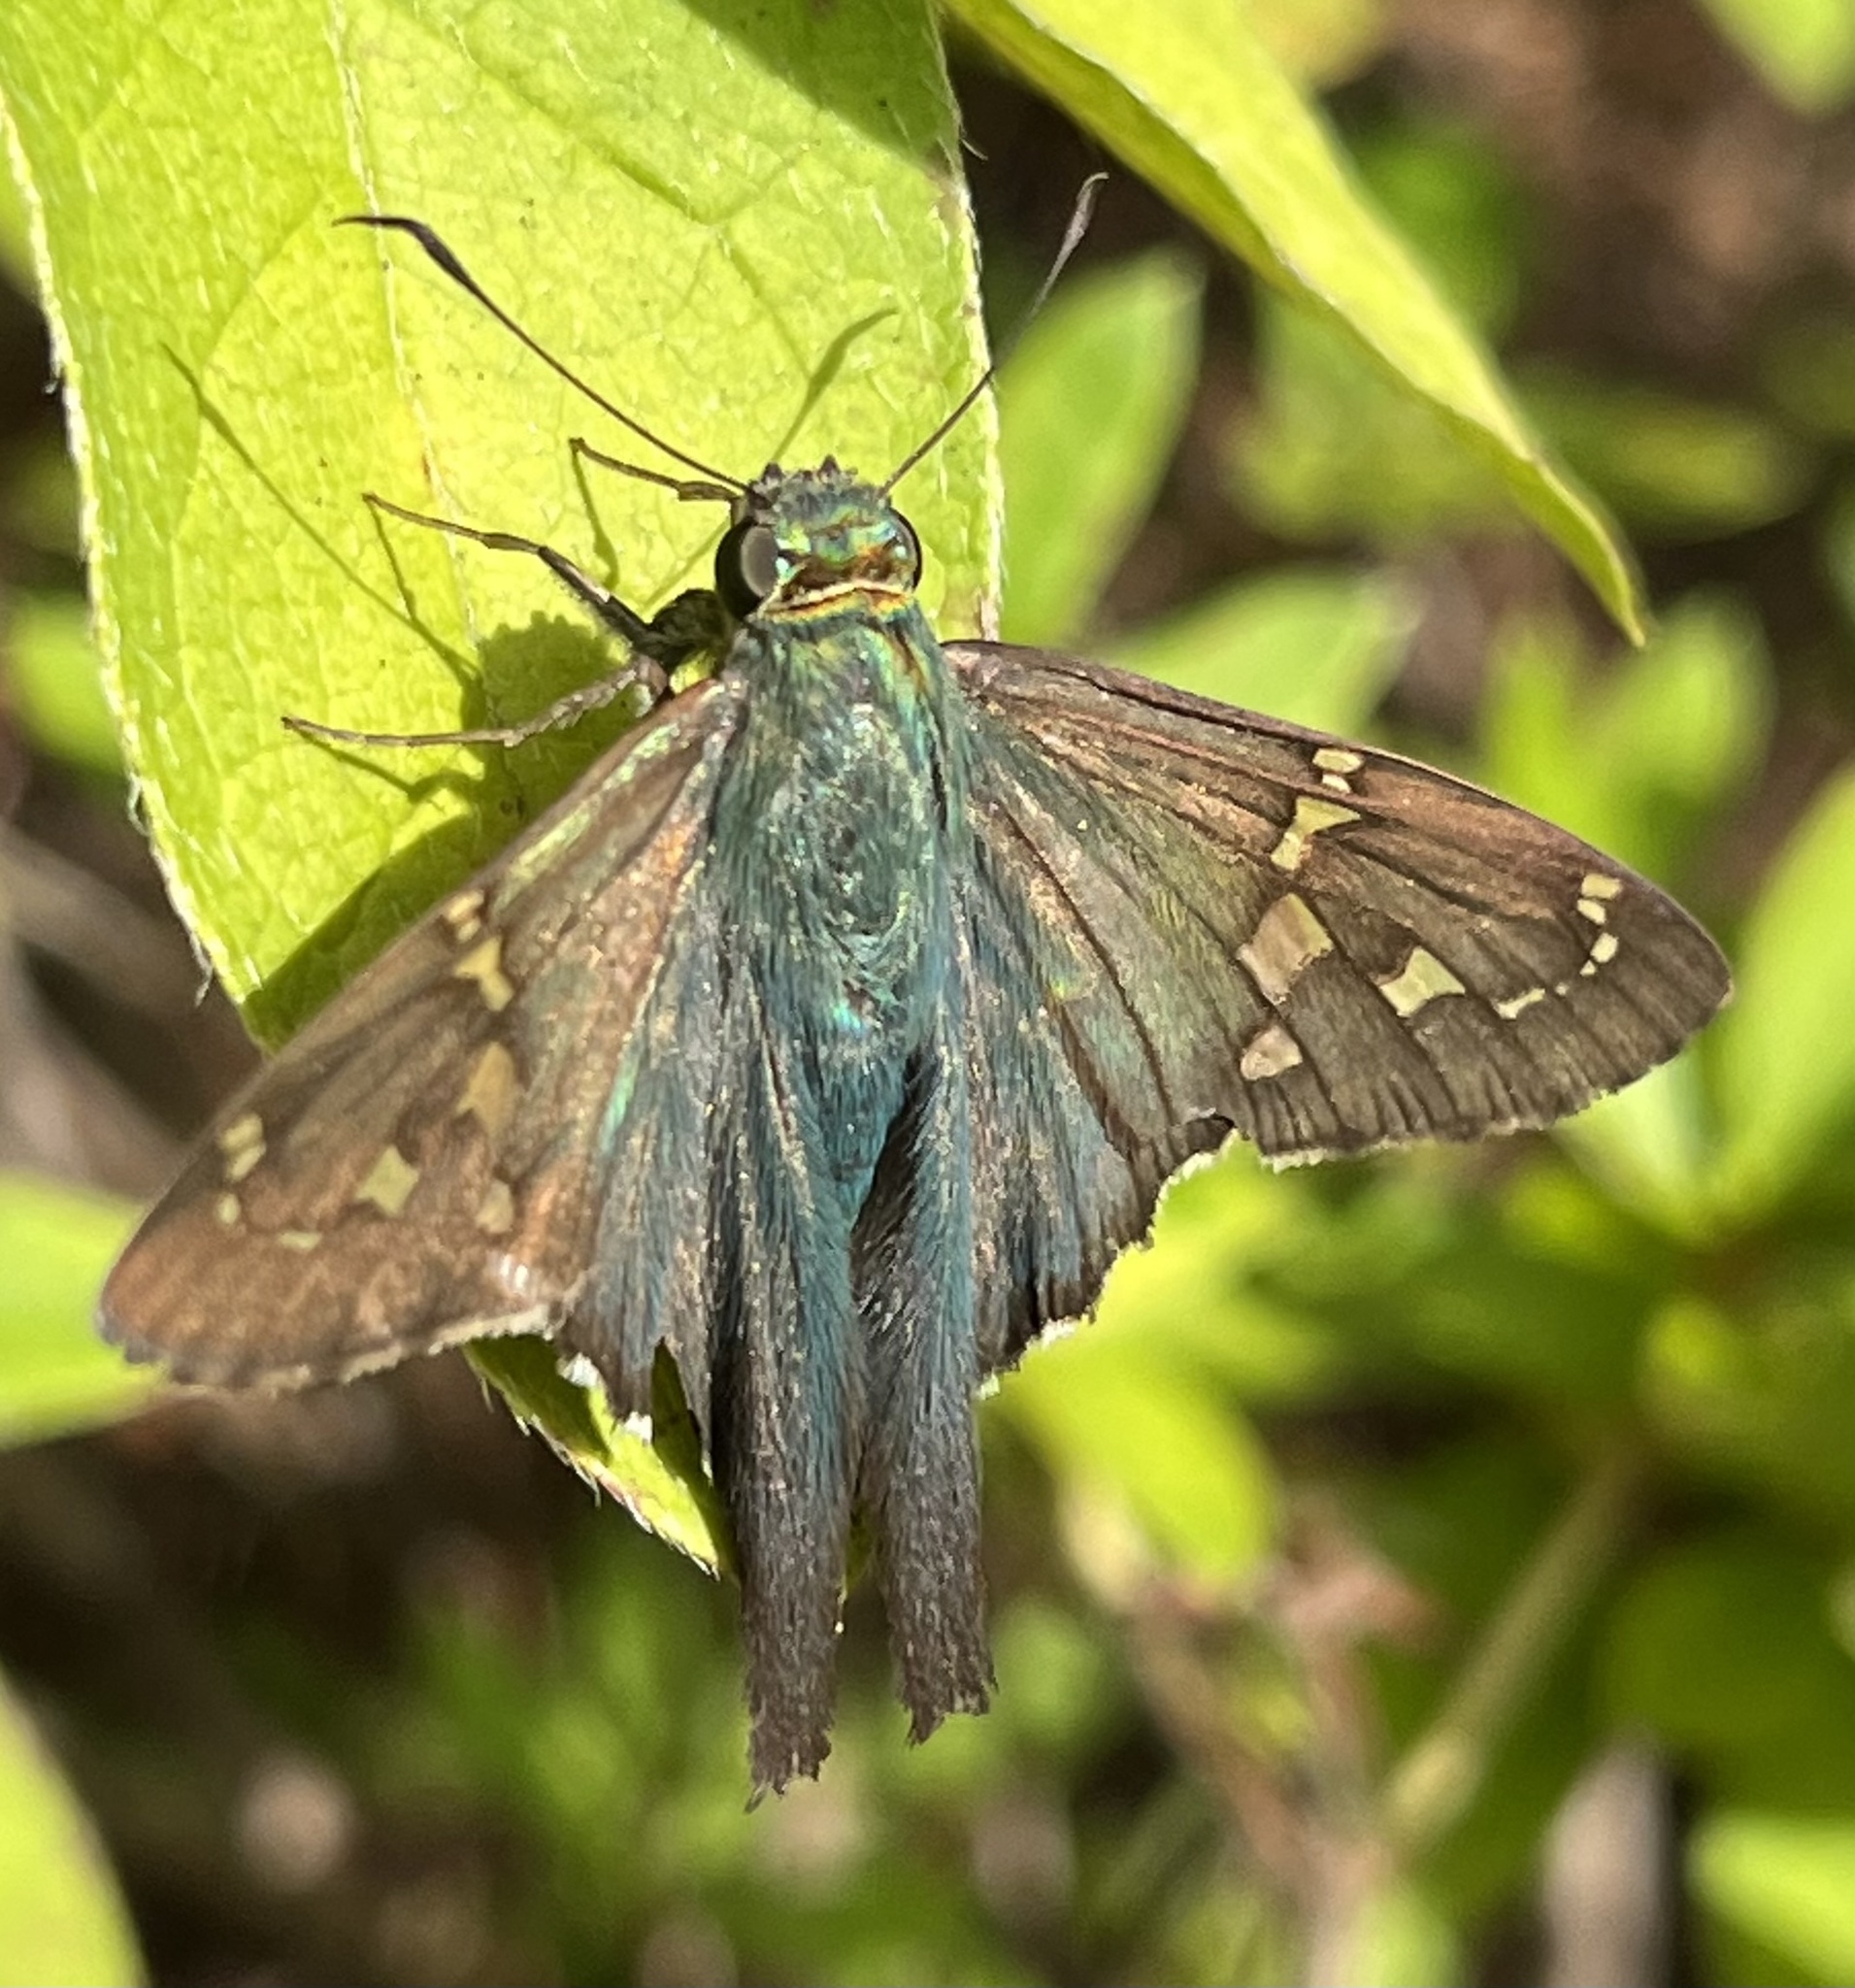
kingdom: Animalia
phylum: Arthropoda
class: Insecta
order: Lepidoptera
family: Hesperiidae
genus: Urbanus
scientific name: Urbanus proteus
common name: Long-tailed skipper
